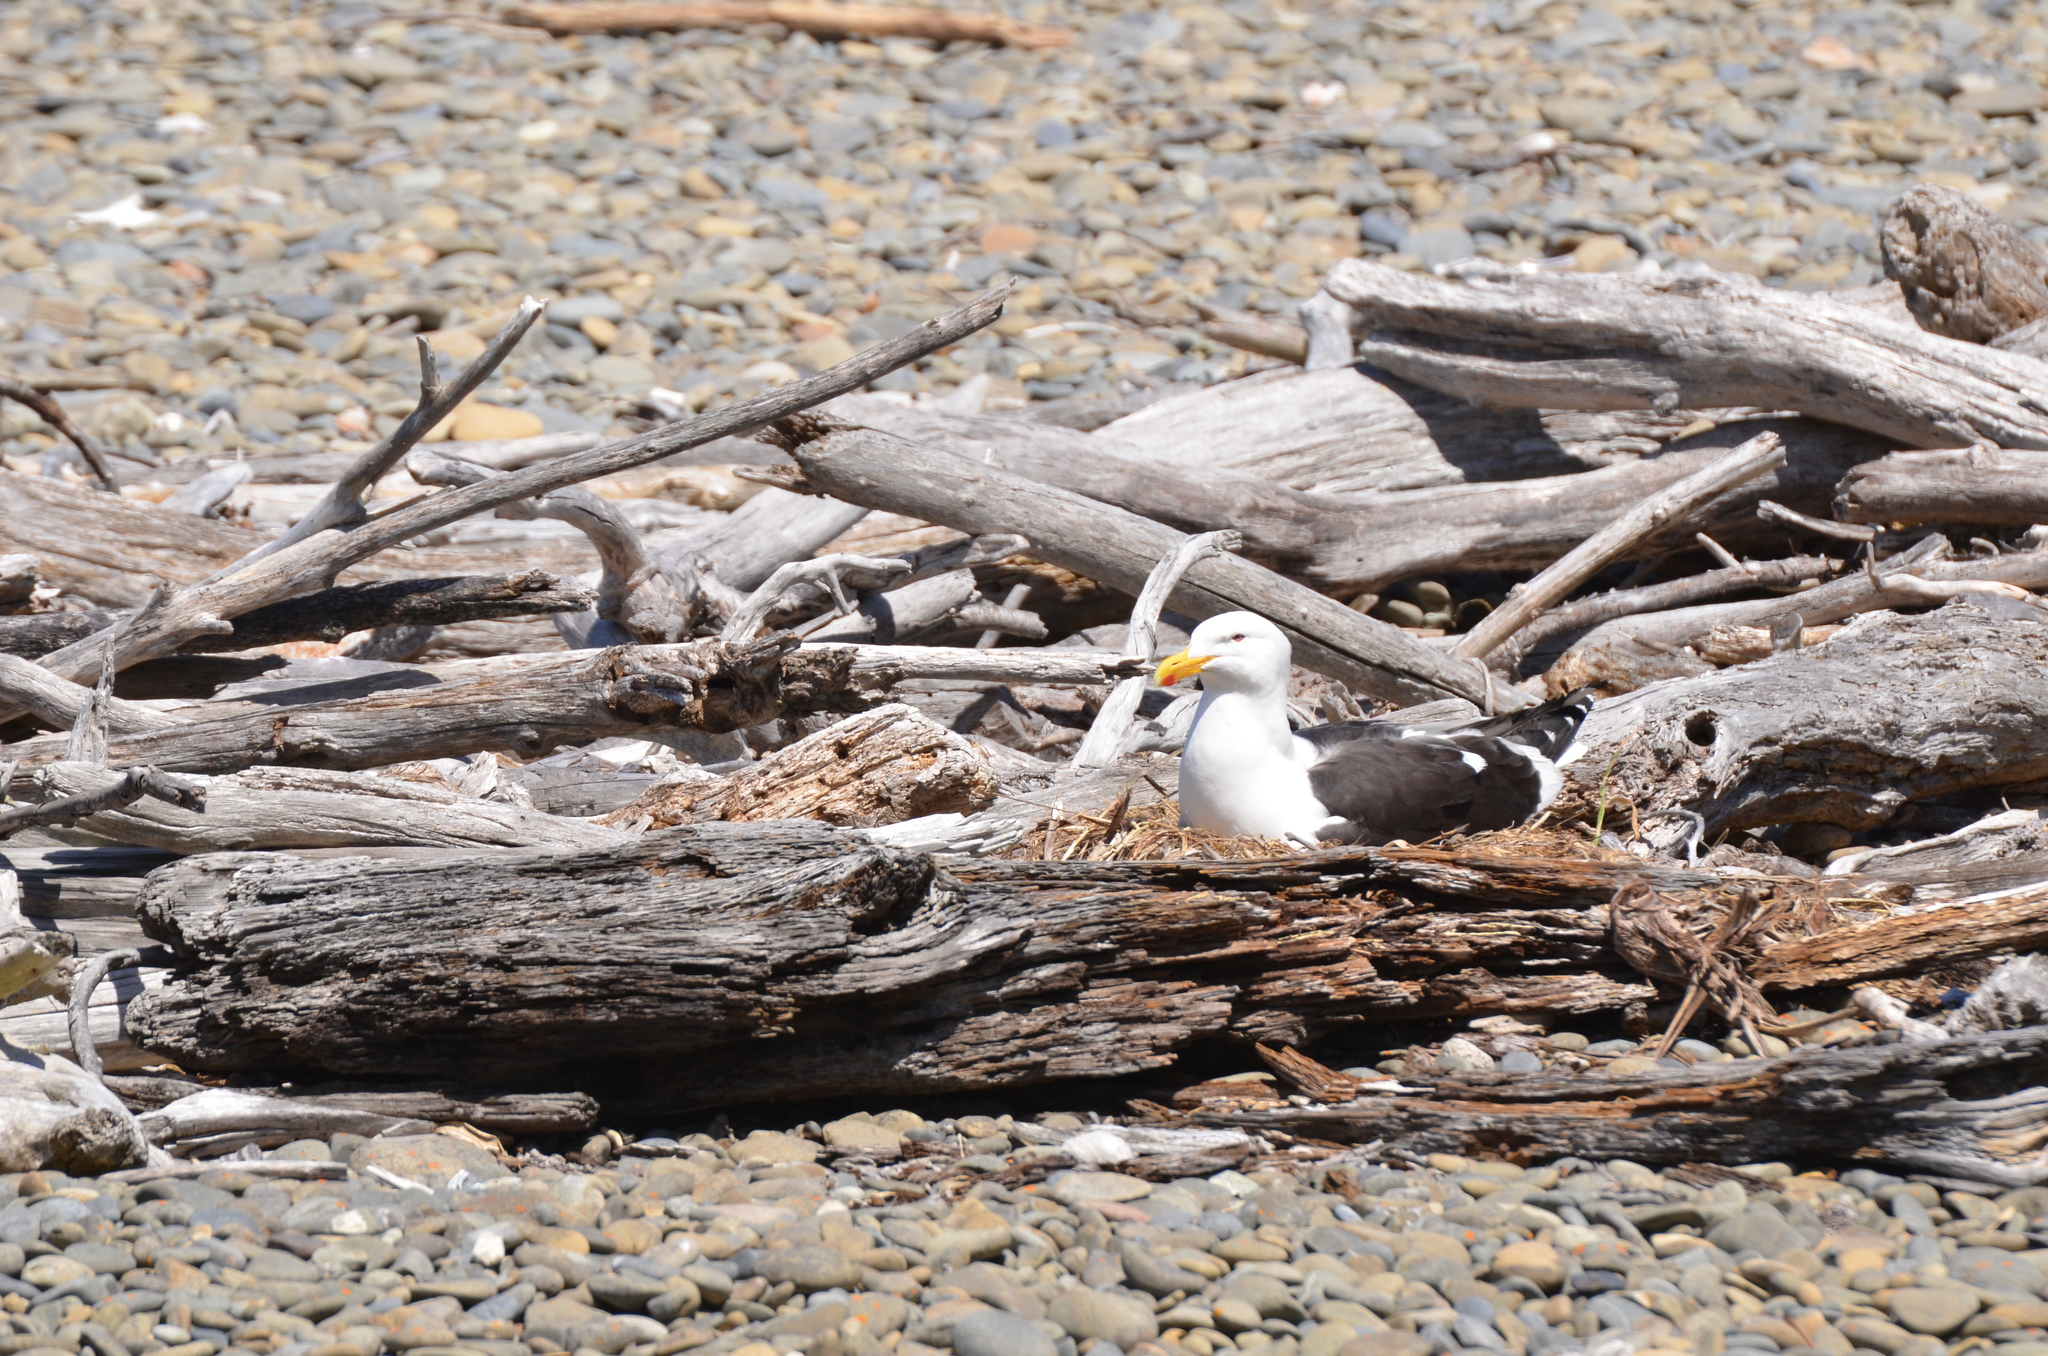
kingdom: Animalia
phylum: Chordata
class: Aves
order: Charadriiformes
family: Laridae
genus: Larus
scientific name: Larus dominicanus
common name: Kelp gull
